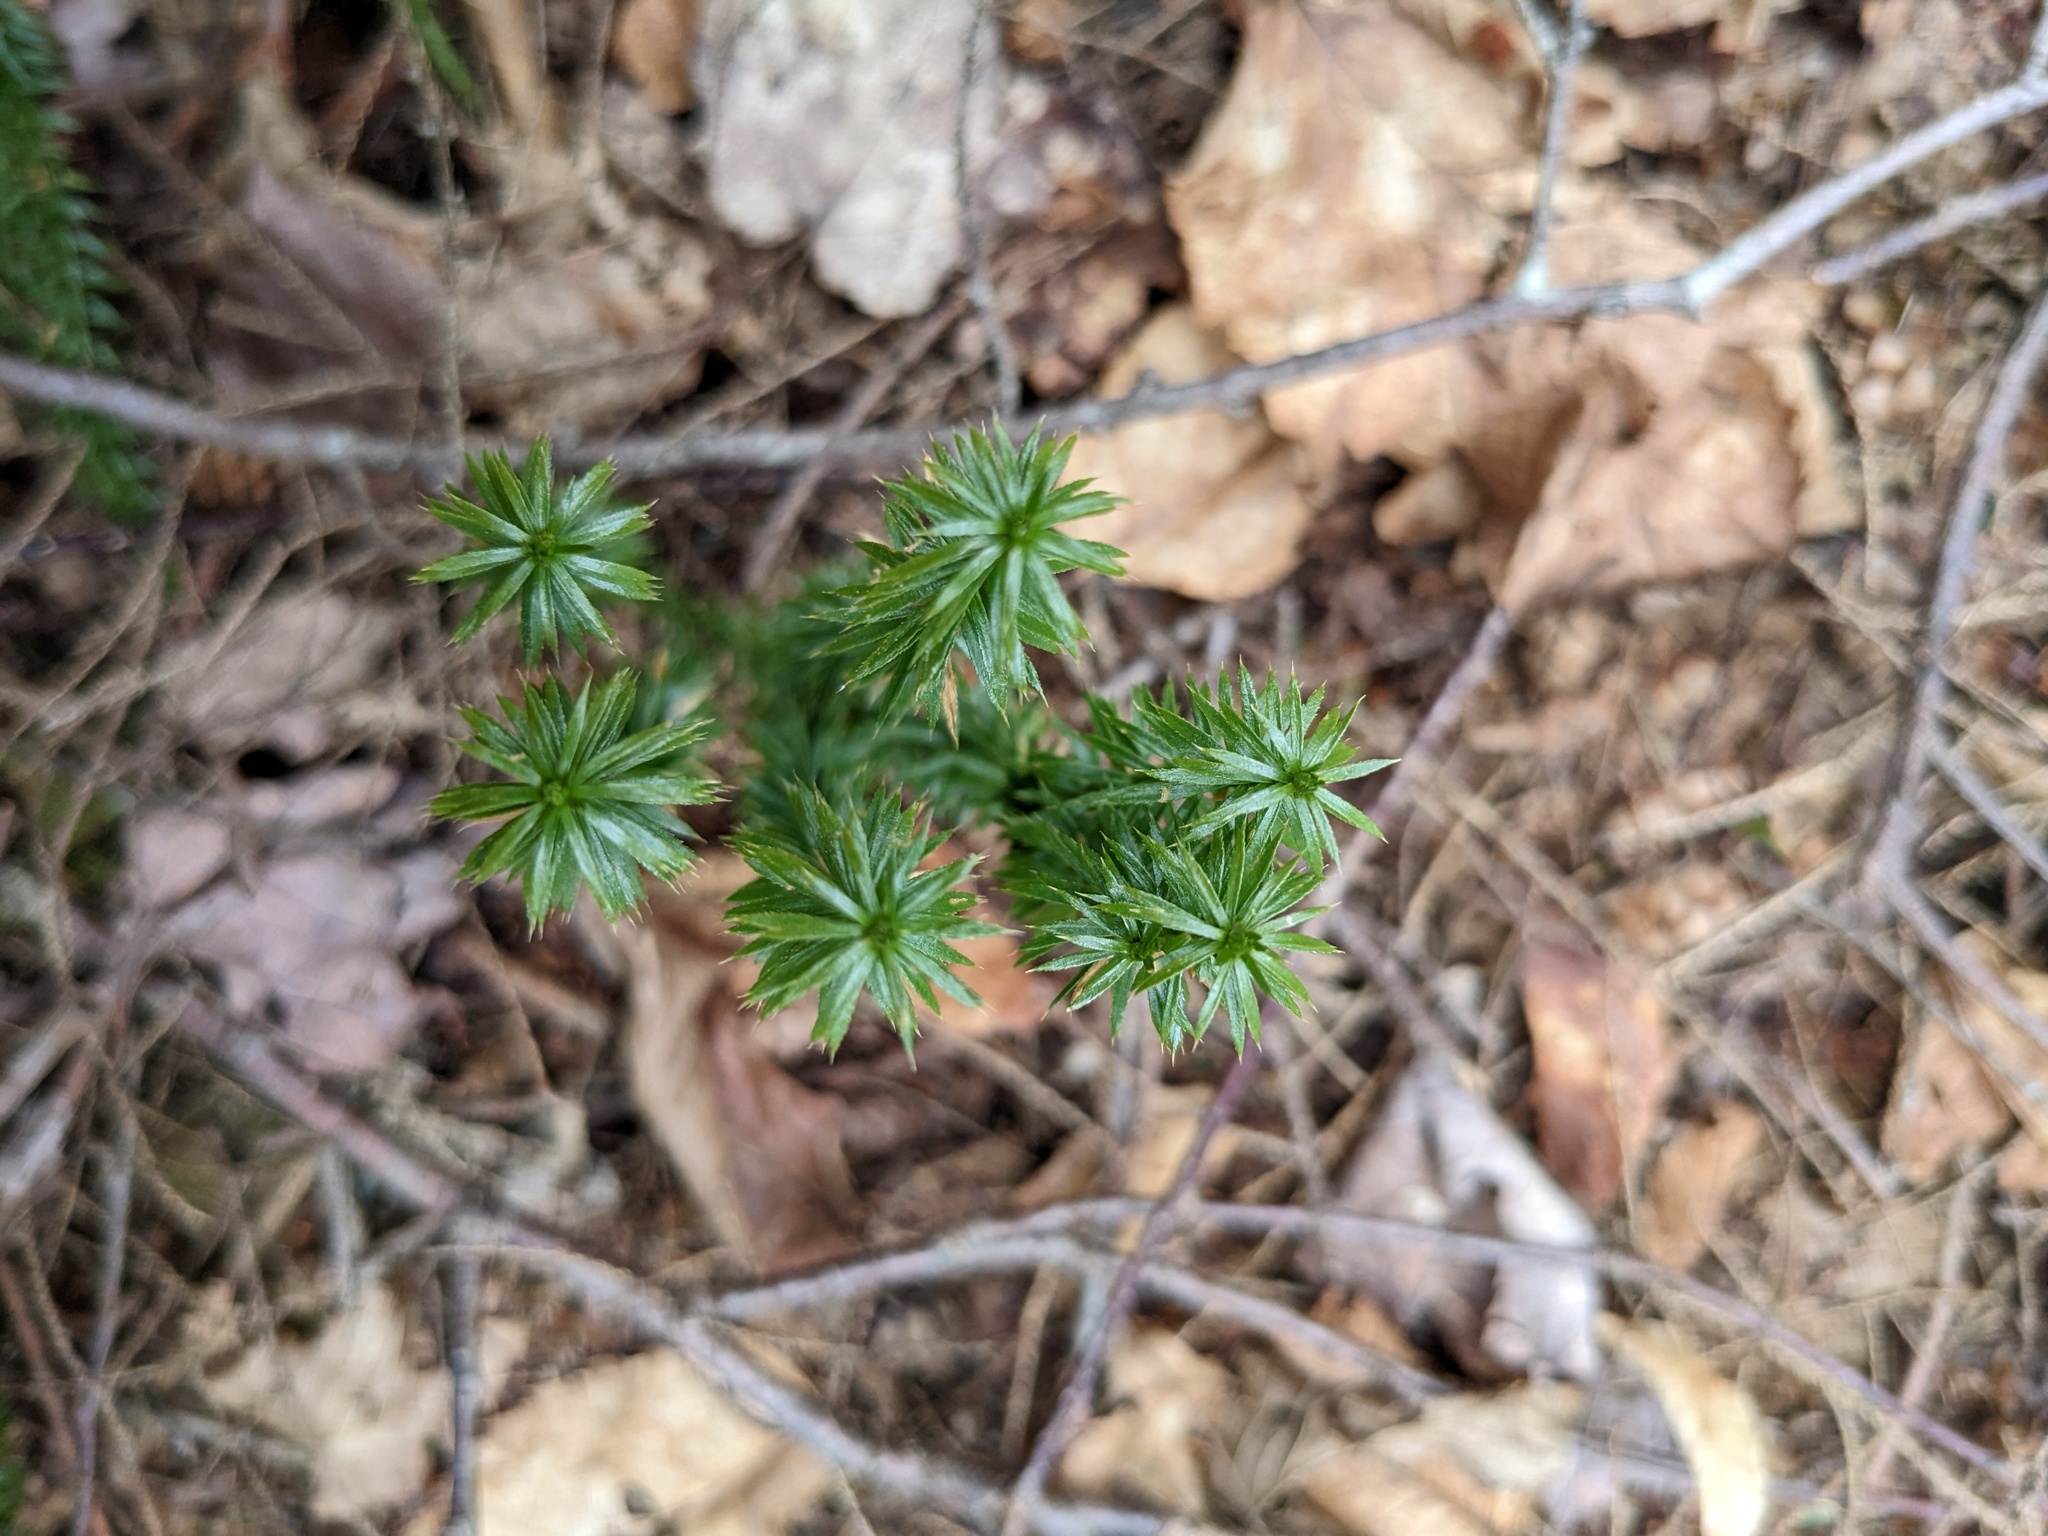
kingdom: Plantae
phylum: Tracheophyta
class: Lycopodiopsida
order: Lycopodiales
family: Lycopodiaceae
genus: Spinulum
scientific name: Spinulum annotinum
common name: Interrupted club-moss
